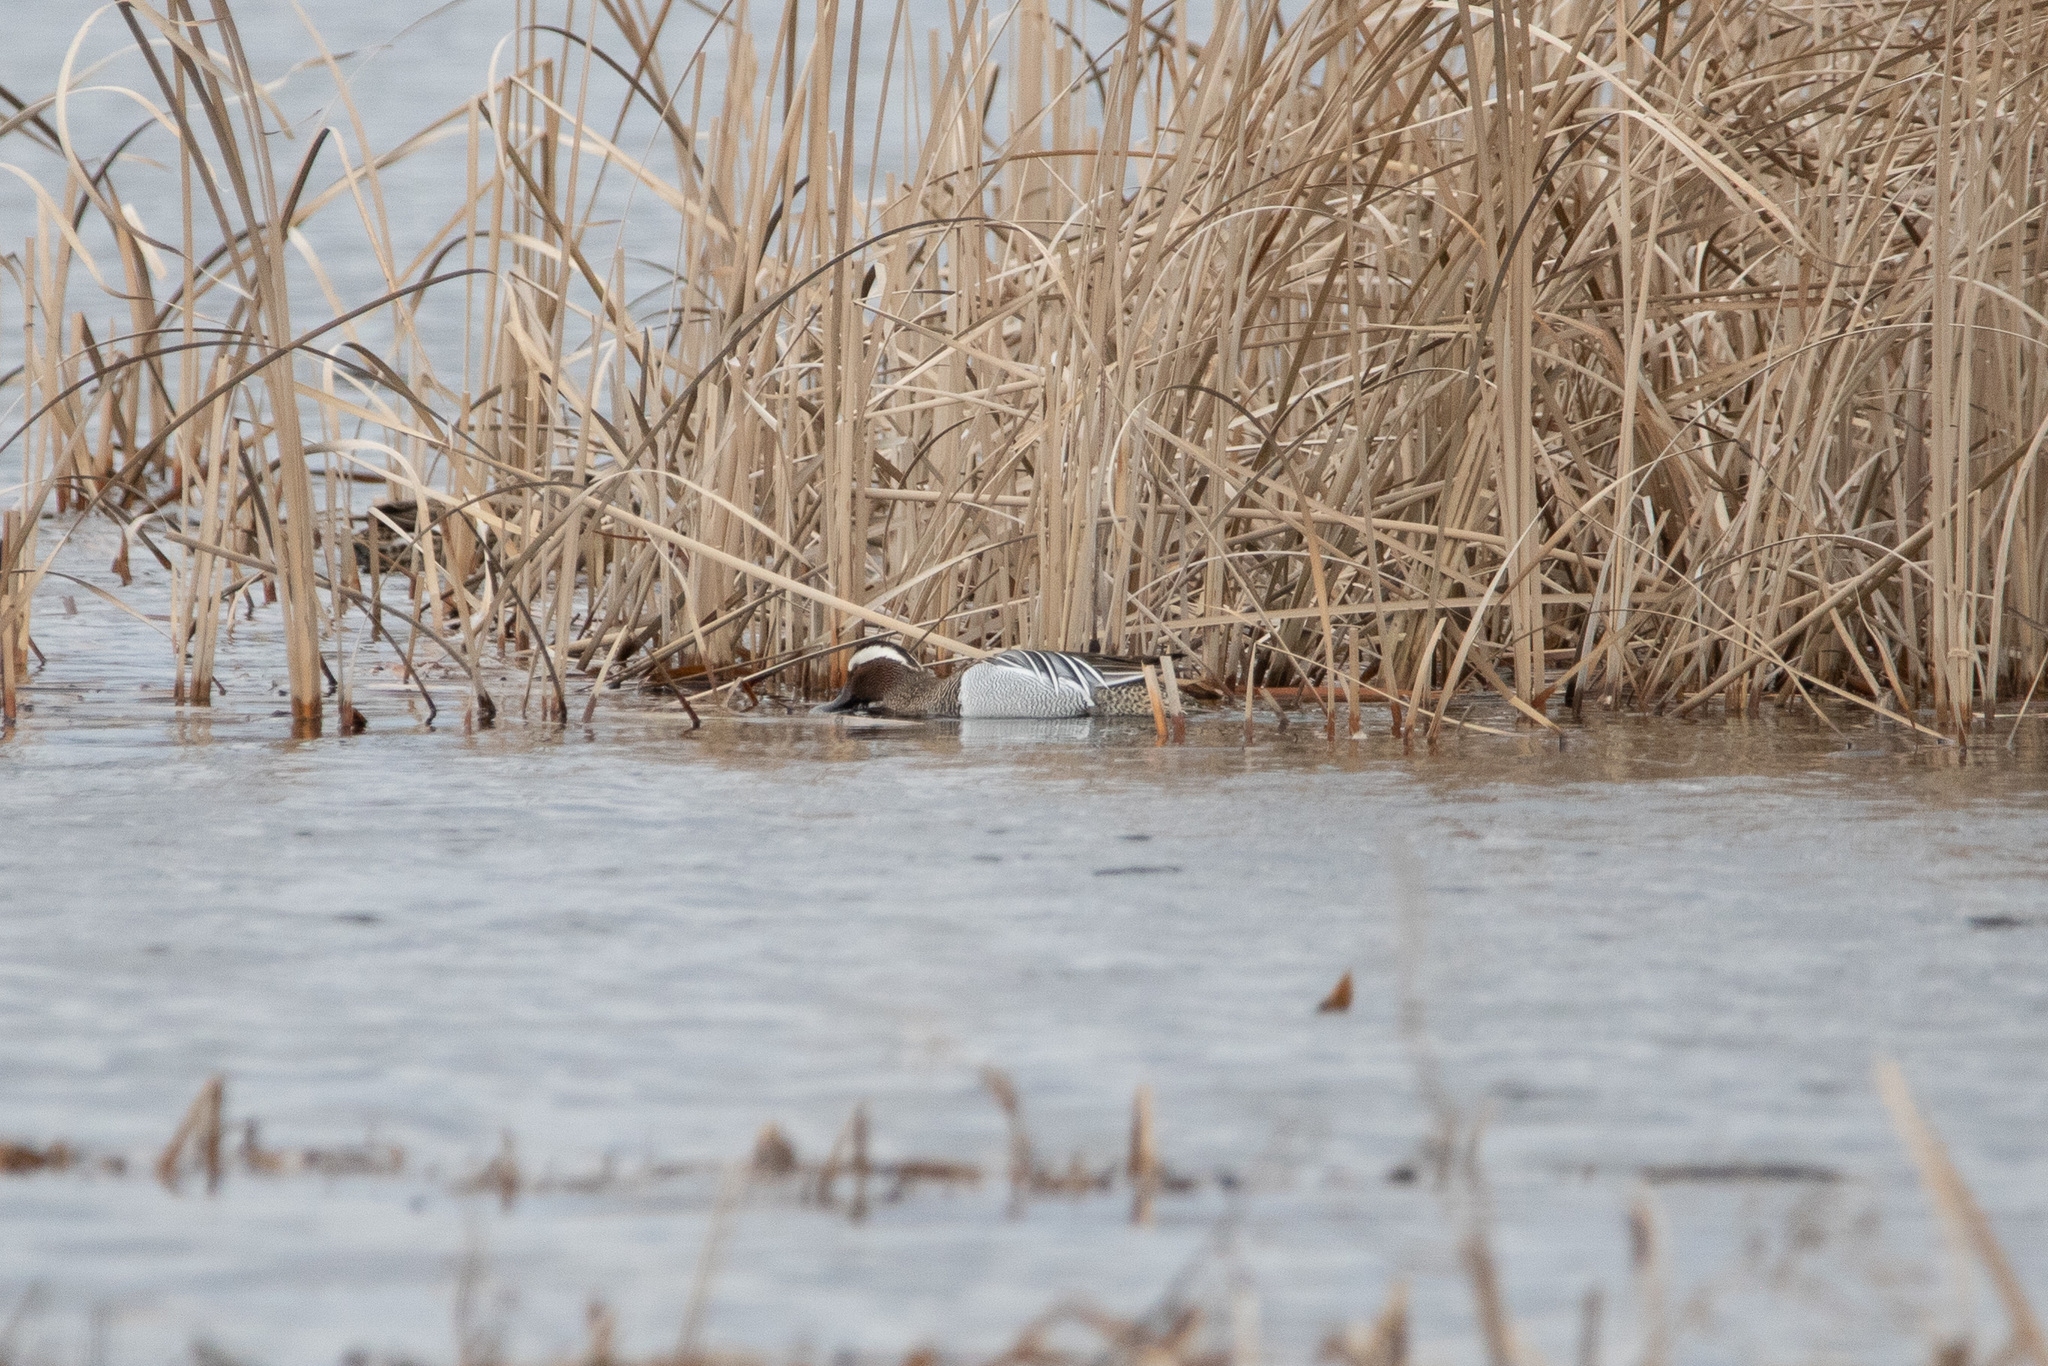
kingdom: Animalia
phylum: Chordata
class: Aves
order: Anseriformes
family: Anatidae
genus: Spatula
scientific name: Spatula querquedula
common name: Garganey
